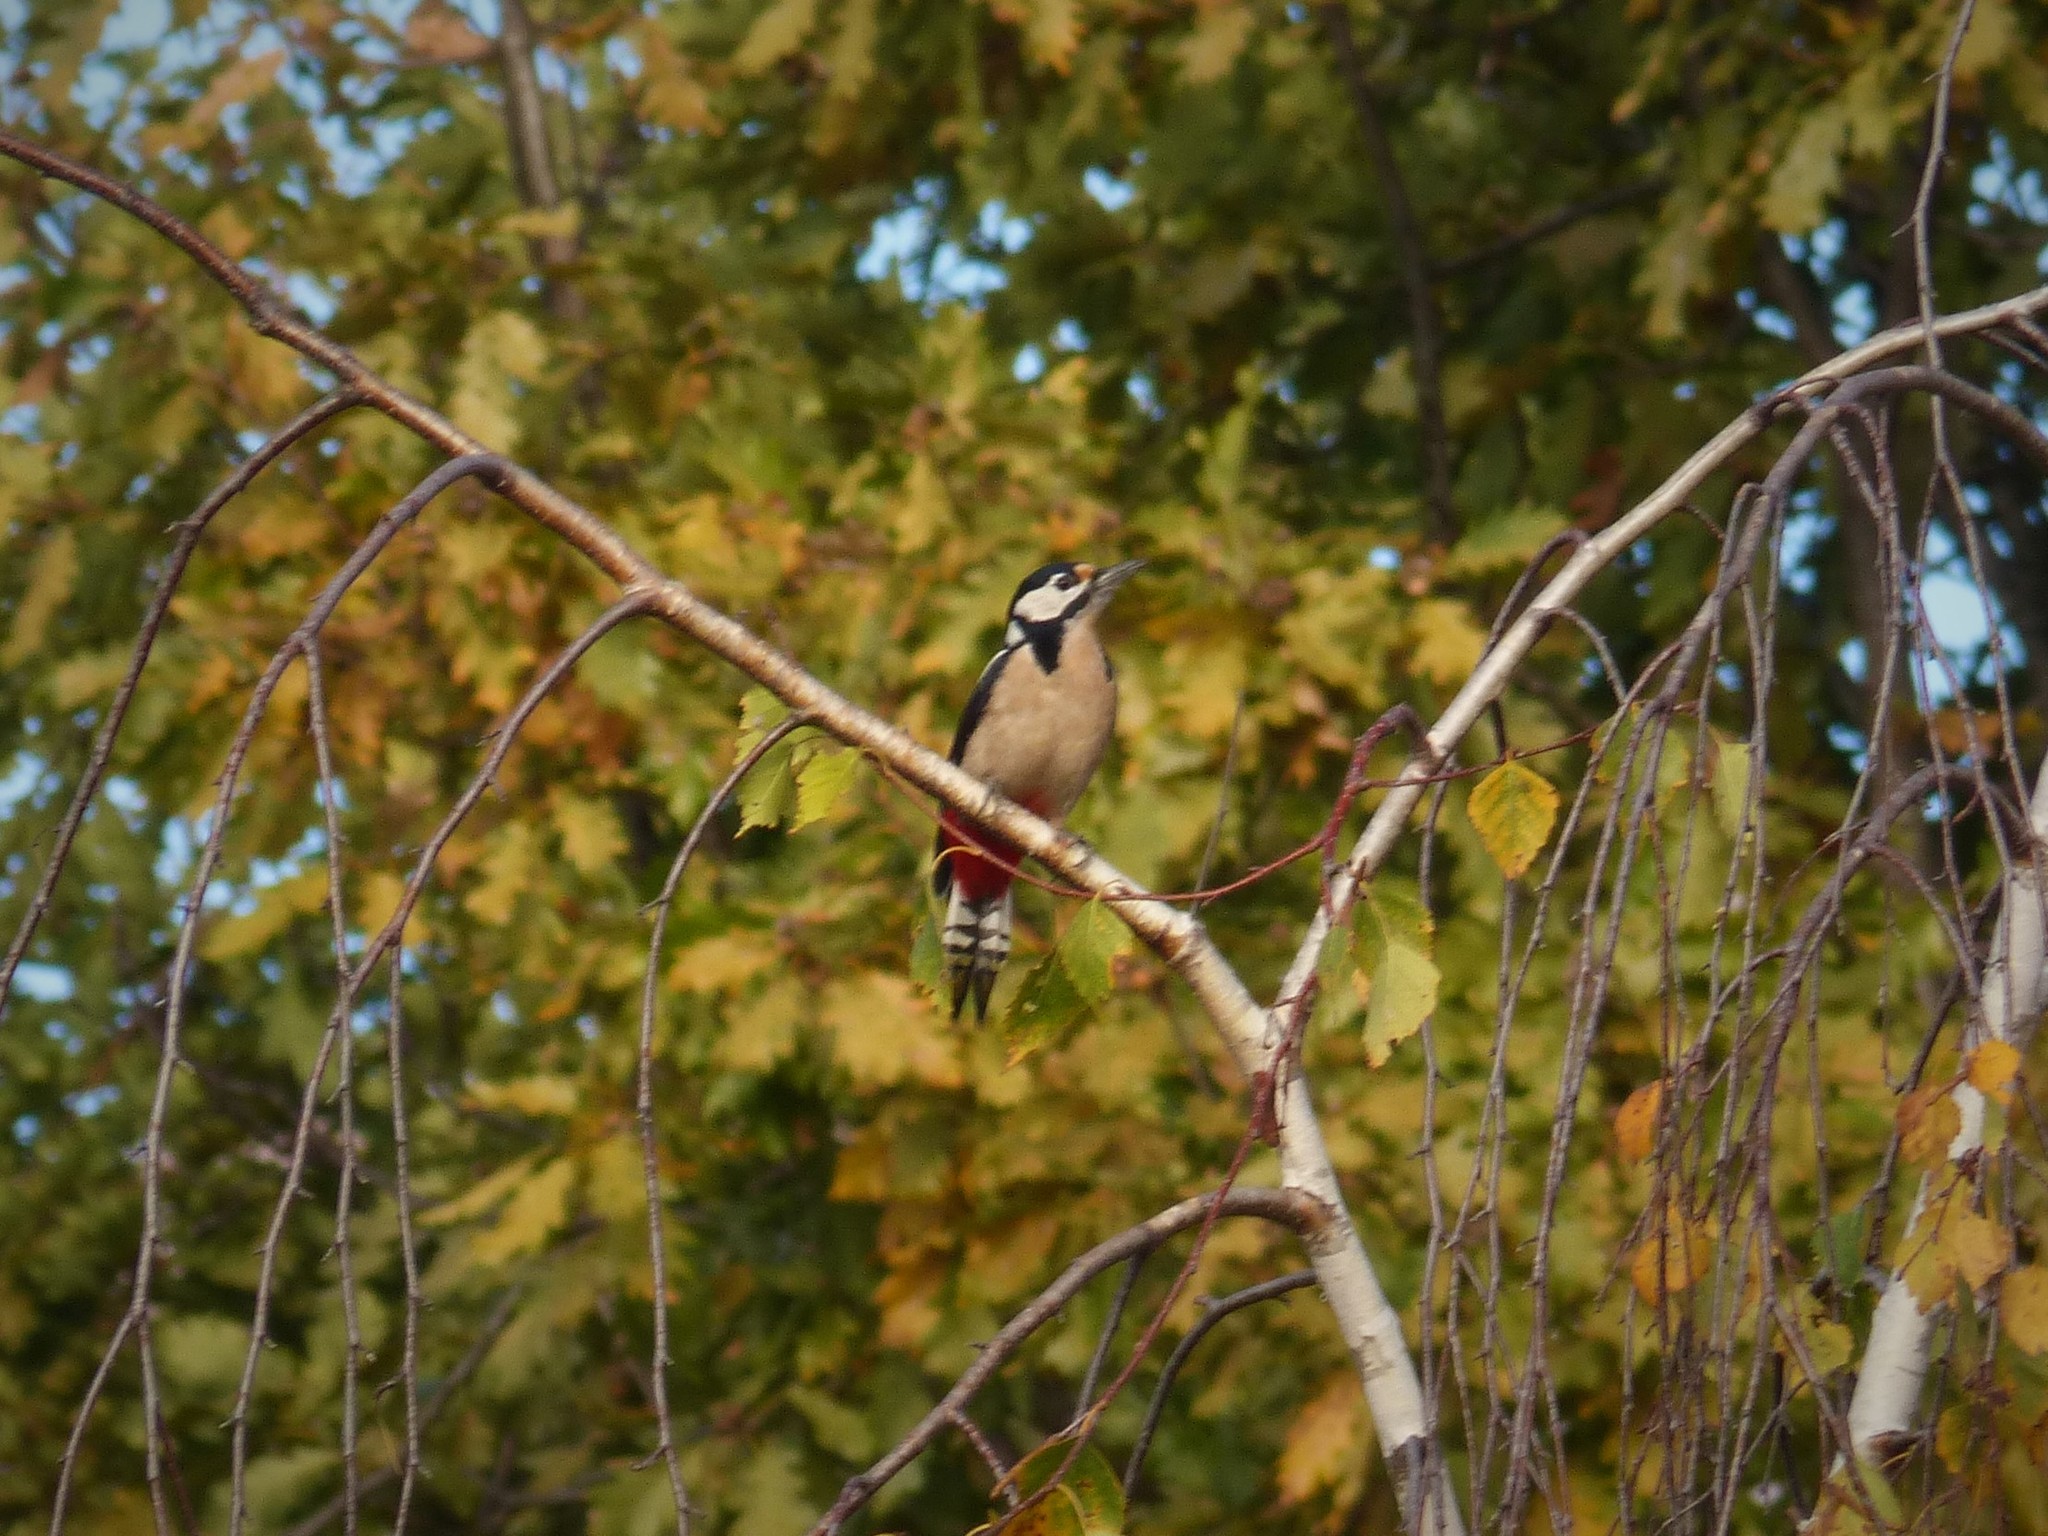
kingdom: Animalia
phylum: Chordata
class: Aves
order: Piciformes
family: Picidae
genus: Dendrocopos
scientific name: Dendrocopos major
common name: Great spotted woodpecker
